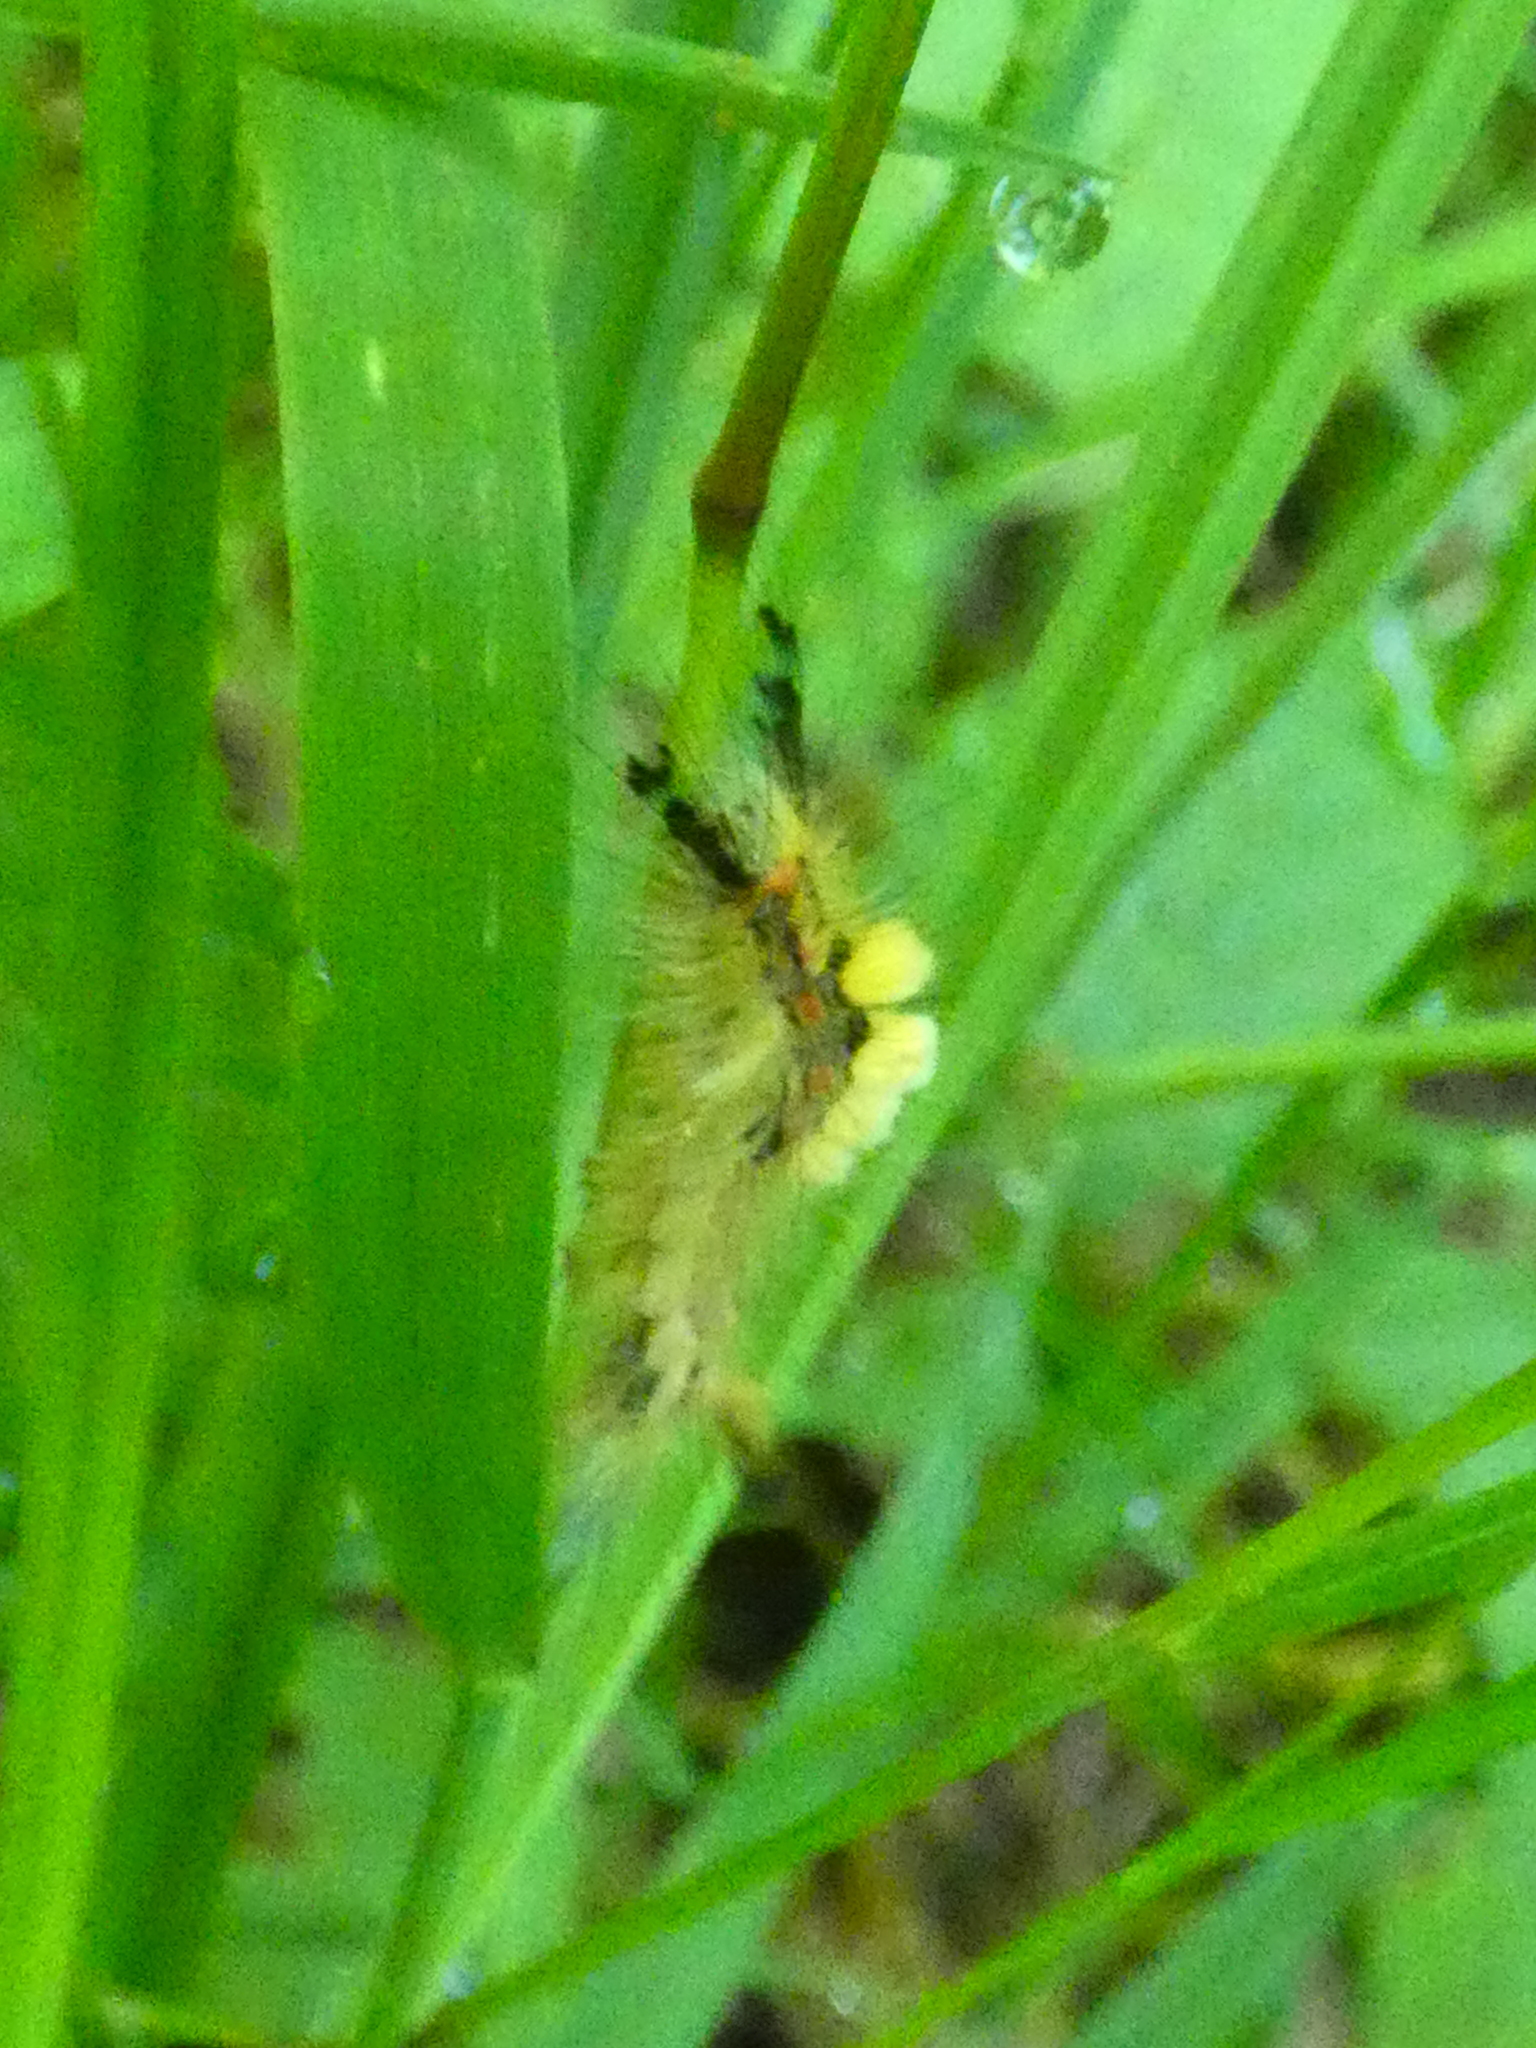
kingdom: Animalia
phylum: Arthropoda
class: Insecta
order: Lepidoptera
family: Erebidae
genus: Orgyia
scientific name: Orgyia antiqua
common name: Vapourer
